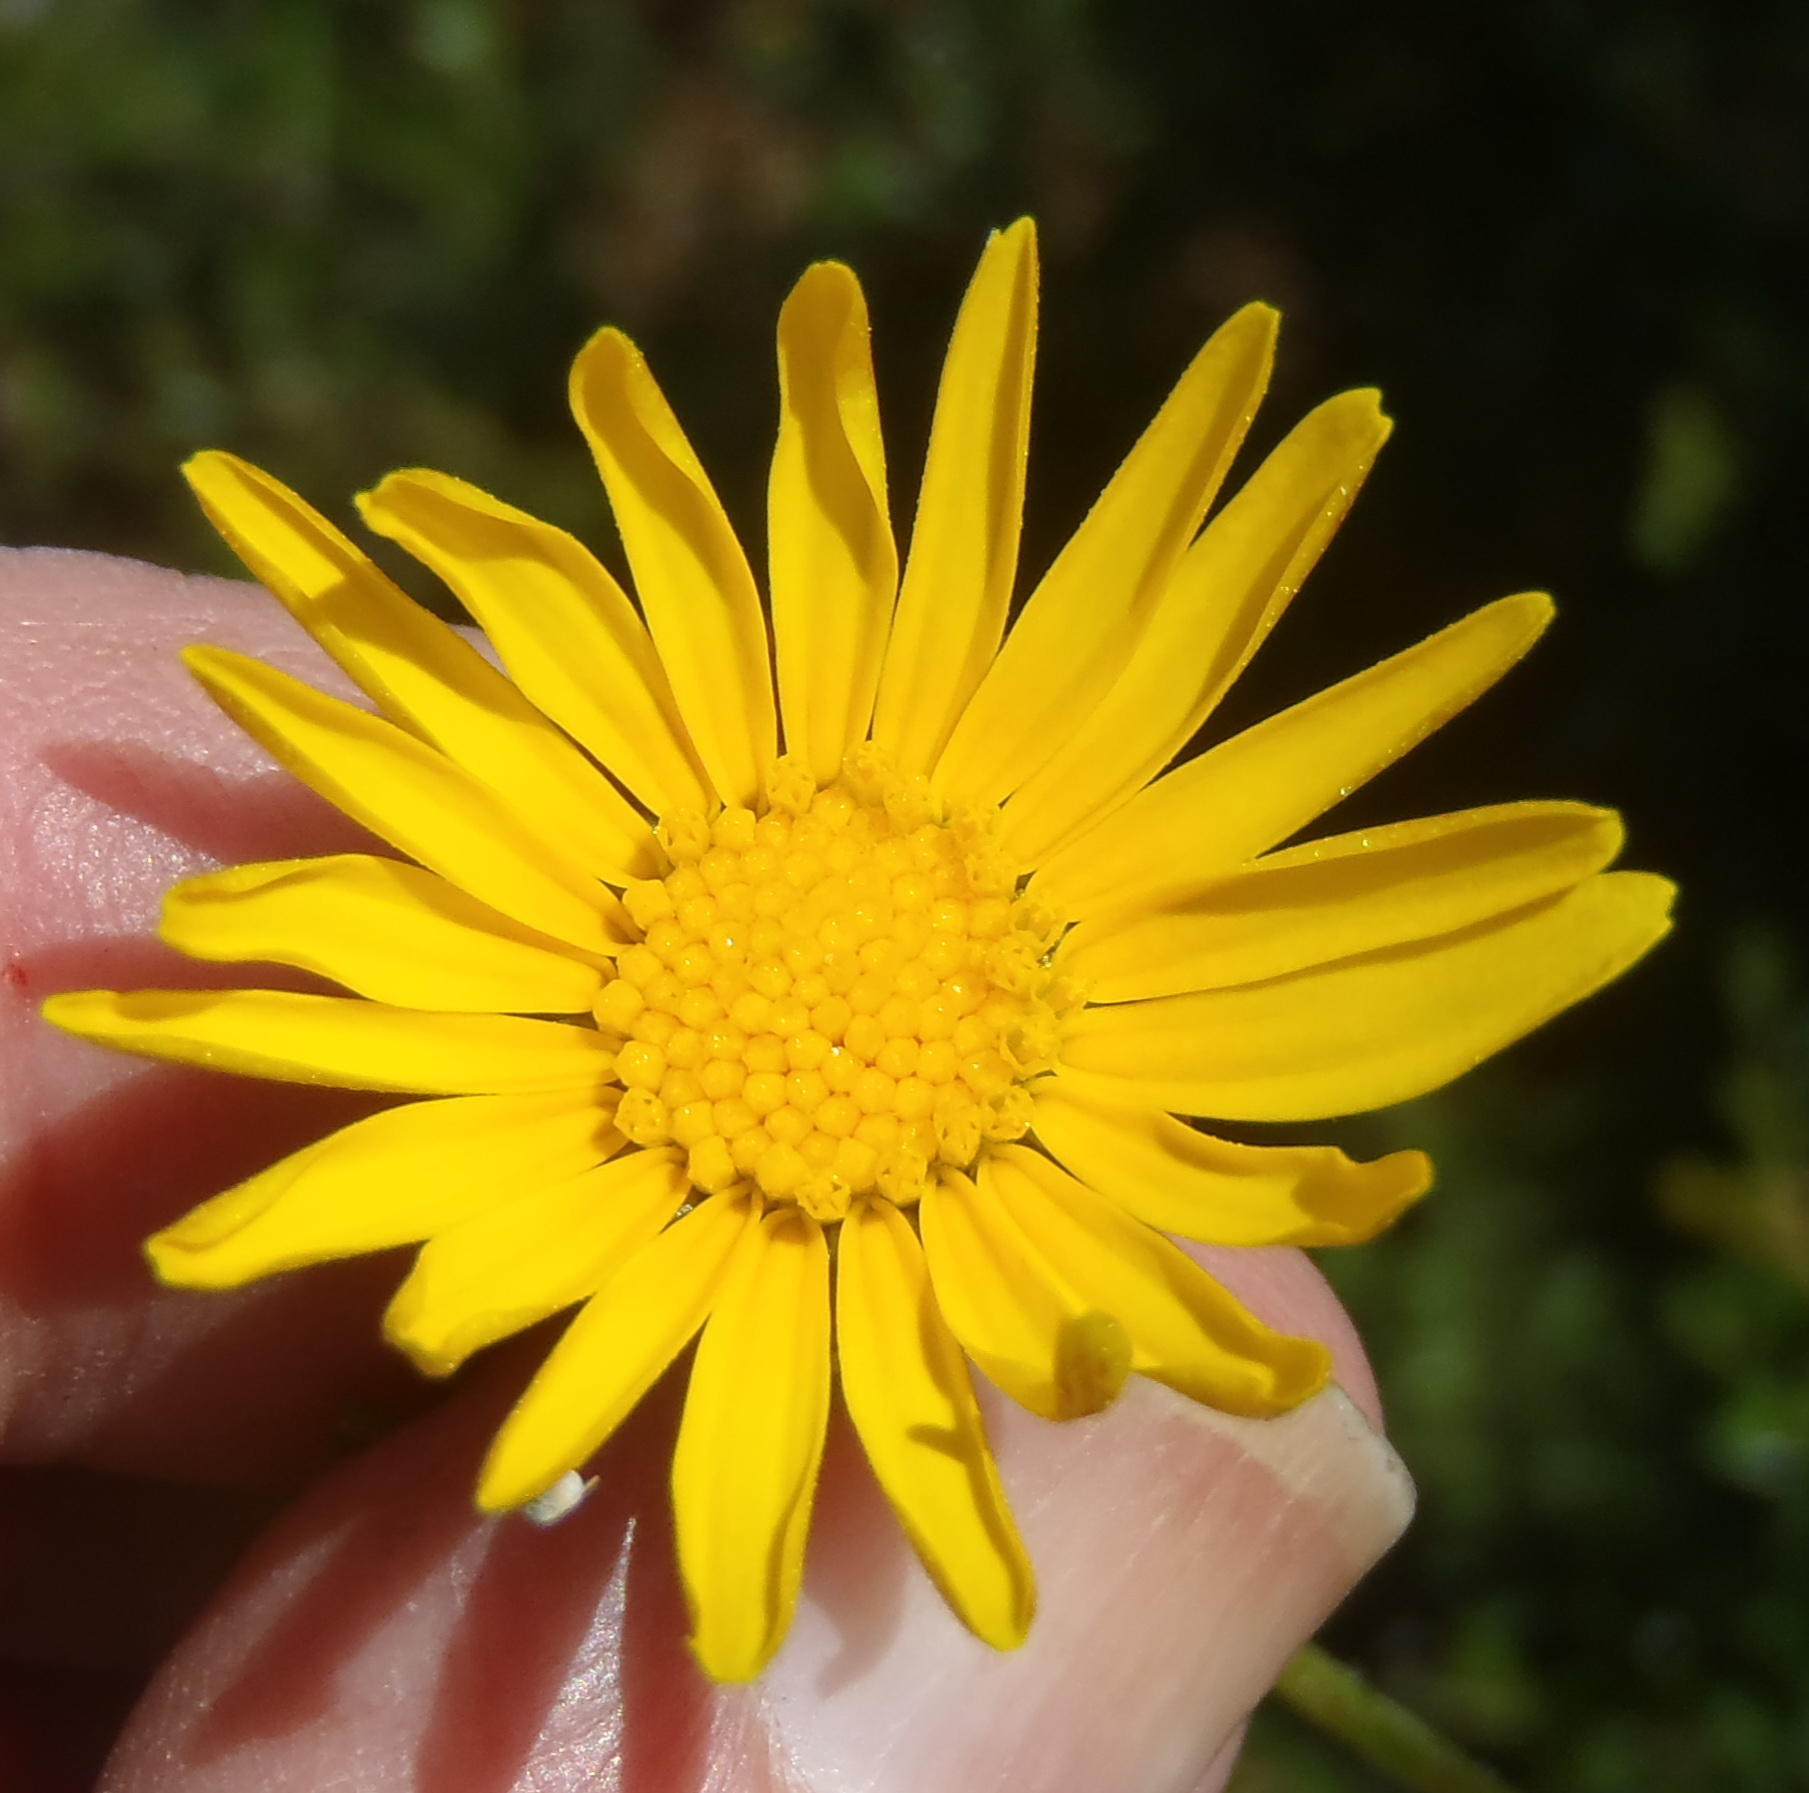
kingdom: Plantae
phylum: Tracheophyta
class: Magnoliopsida
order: Asterales
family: Asteraceae
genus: Ursinia
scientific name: Ursinia trifida
